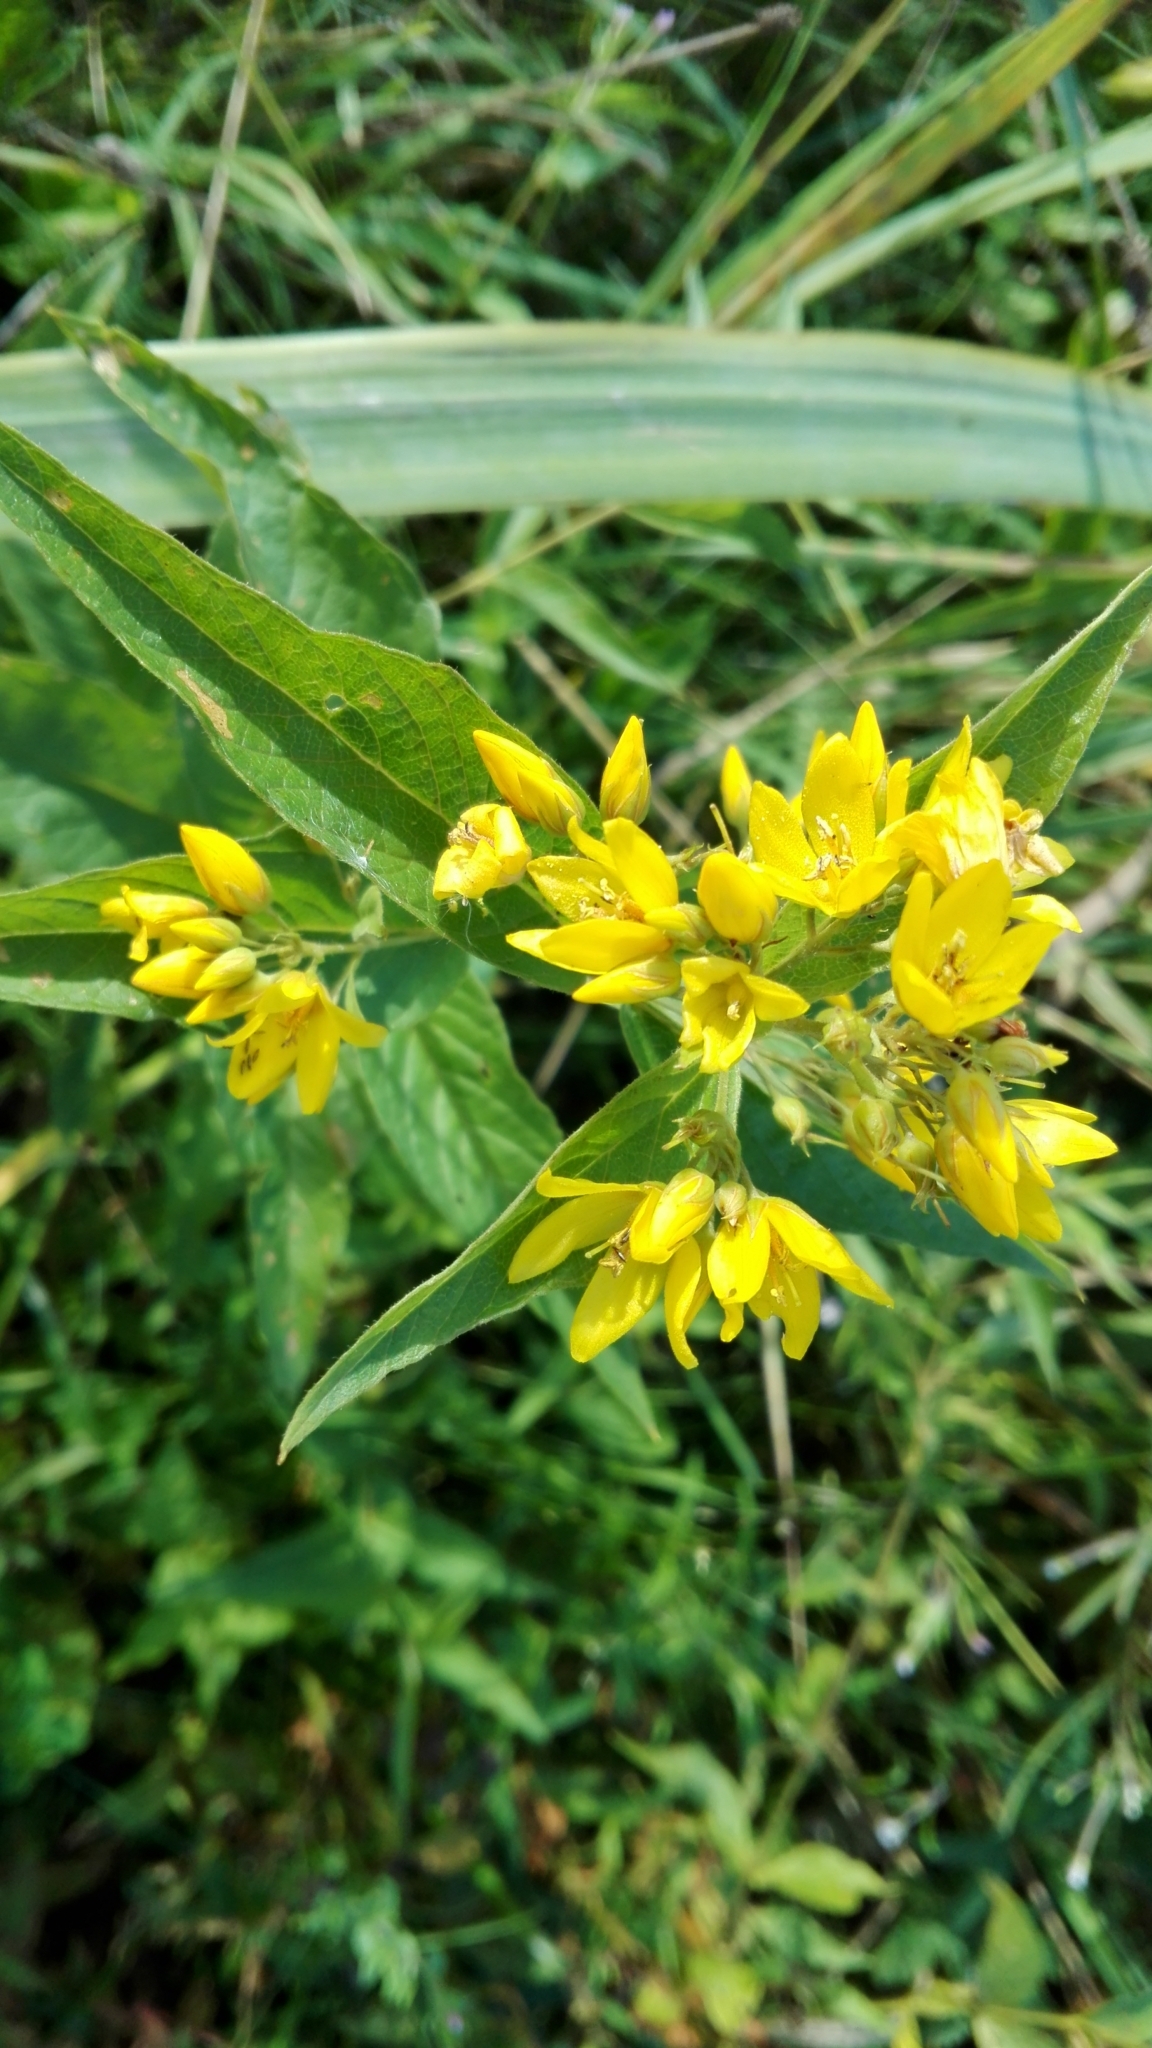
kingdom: Plantae
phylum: Tracheophyta
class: Magnoliopsida
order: Ericales
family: Primulaceae
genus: Lysimachia
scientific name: Lysimachia vulgaris
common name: Yellow loosestrife
